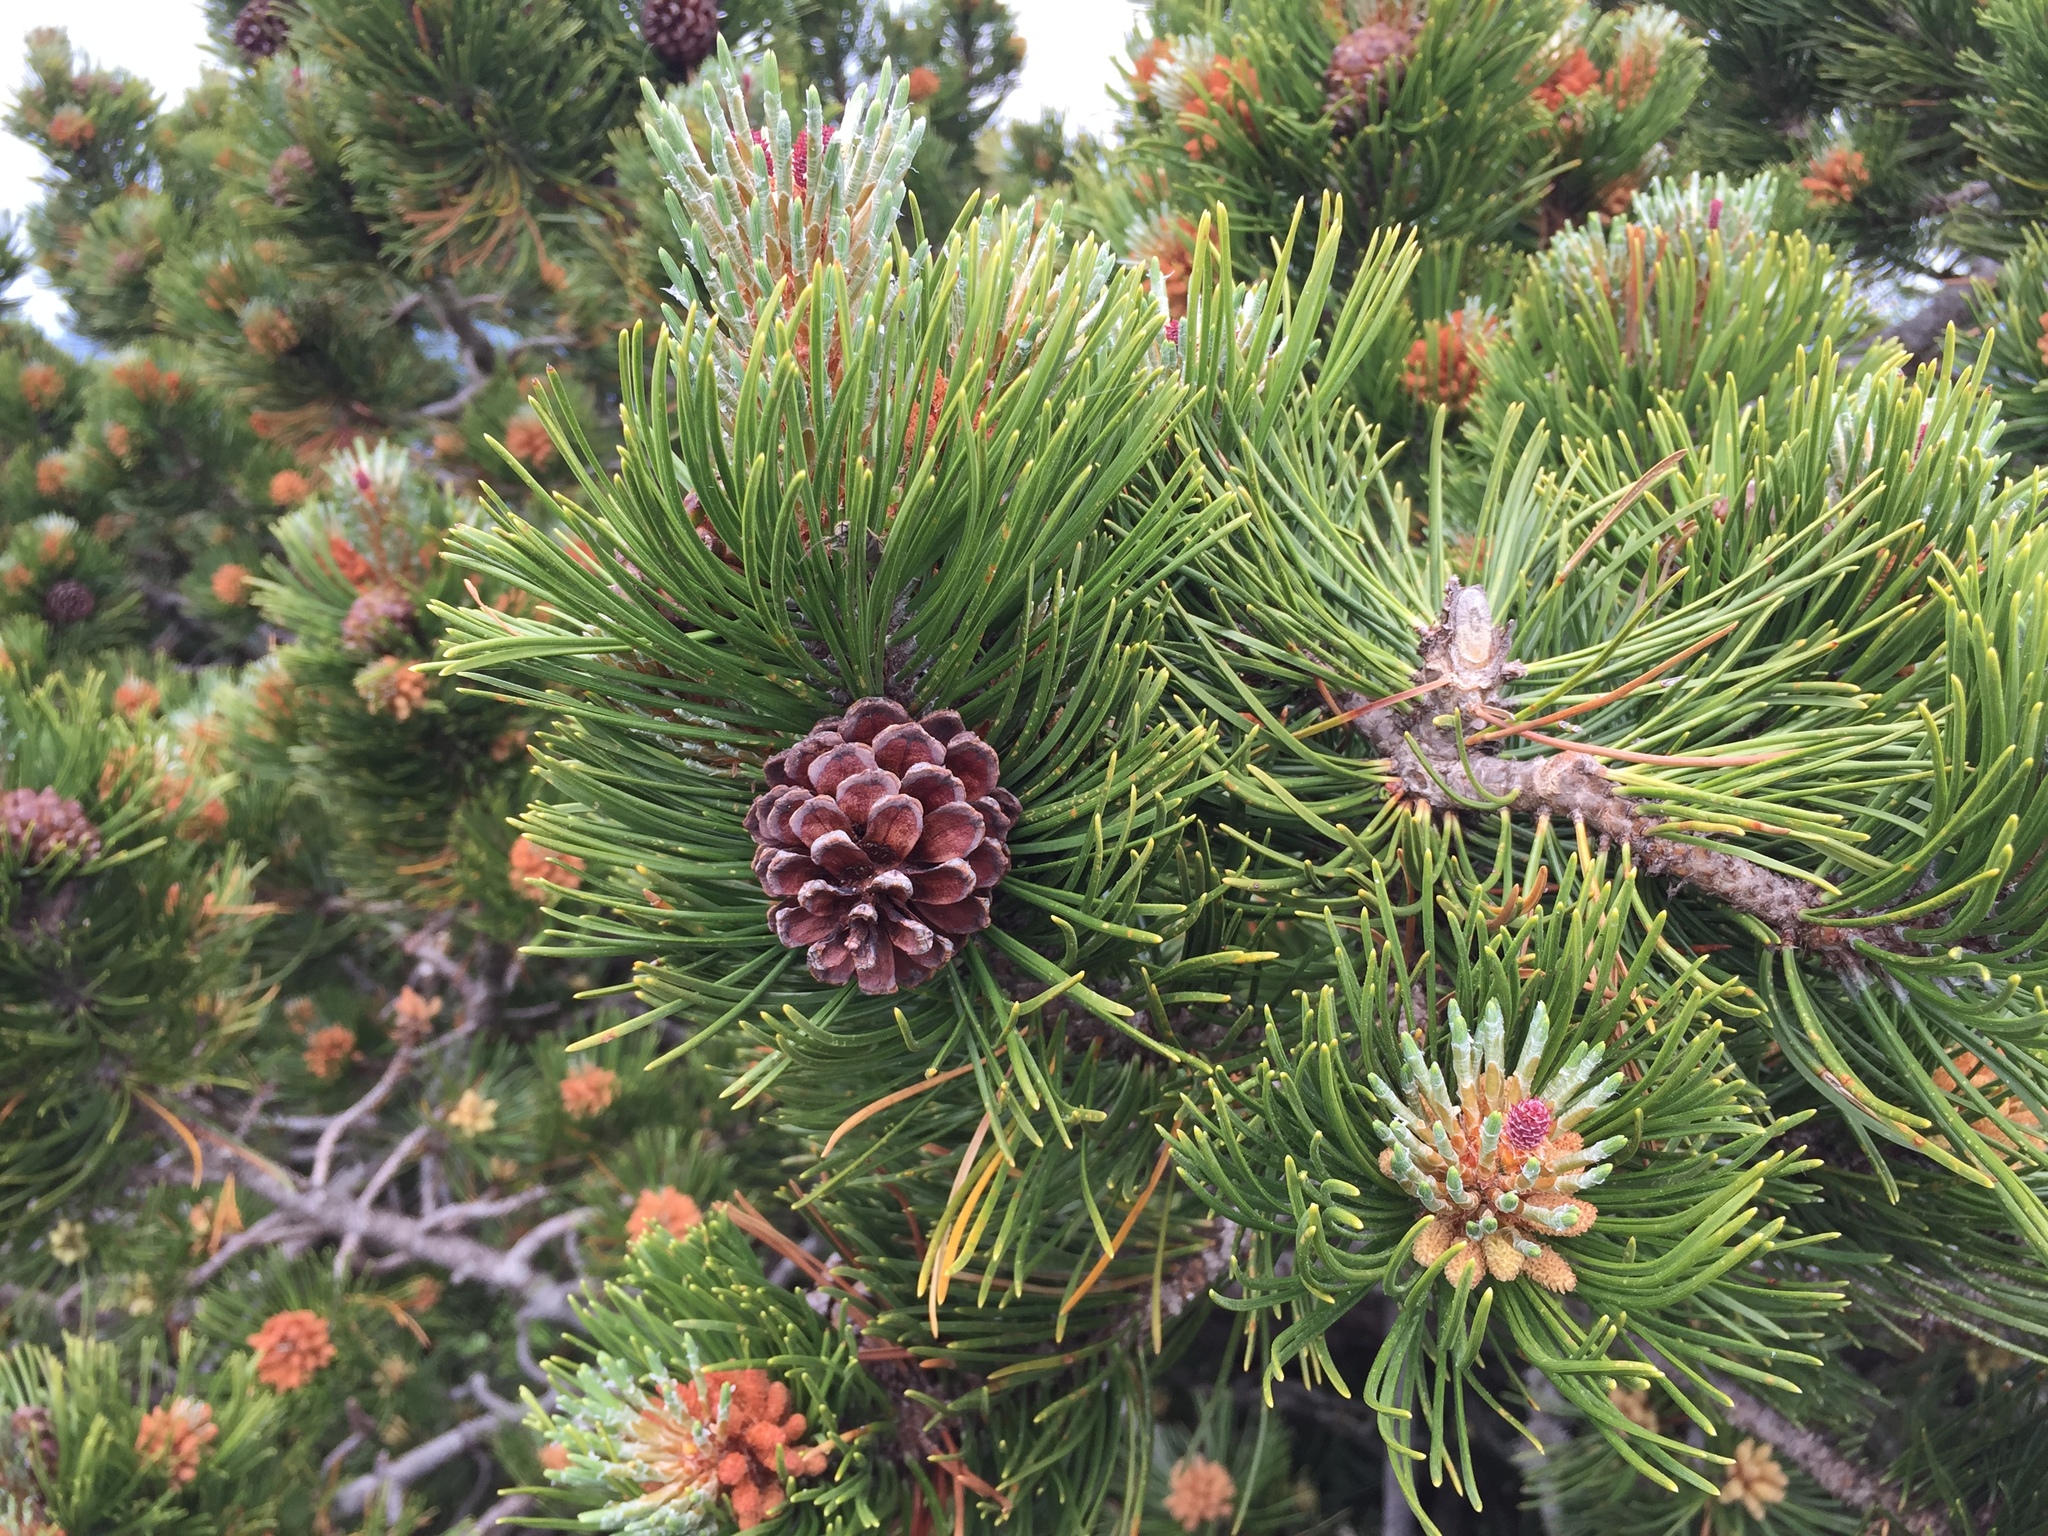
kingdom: Plantae
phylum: Tracheophyta
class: Pinopsida
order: Pinales
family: Pinaceae
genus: Pinus
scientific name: Pinus mugo
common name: Mugo pine
